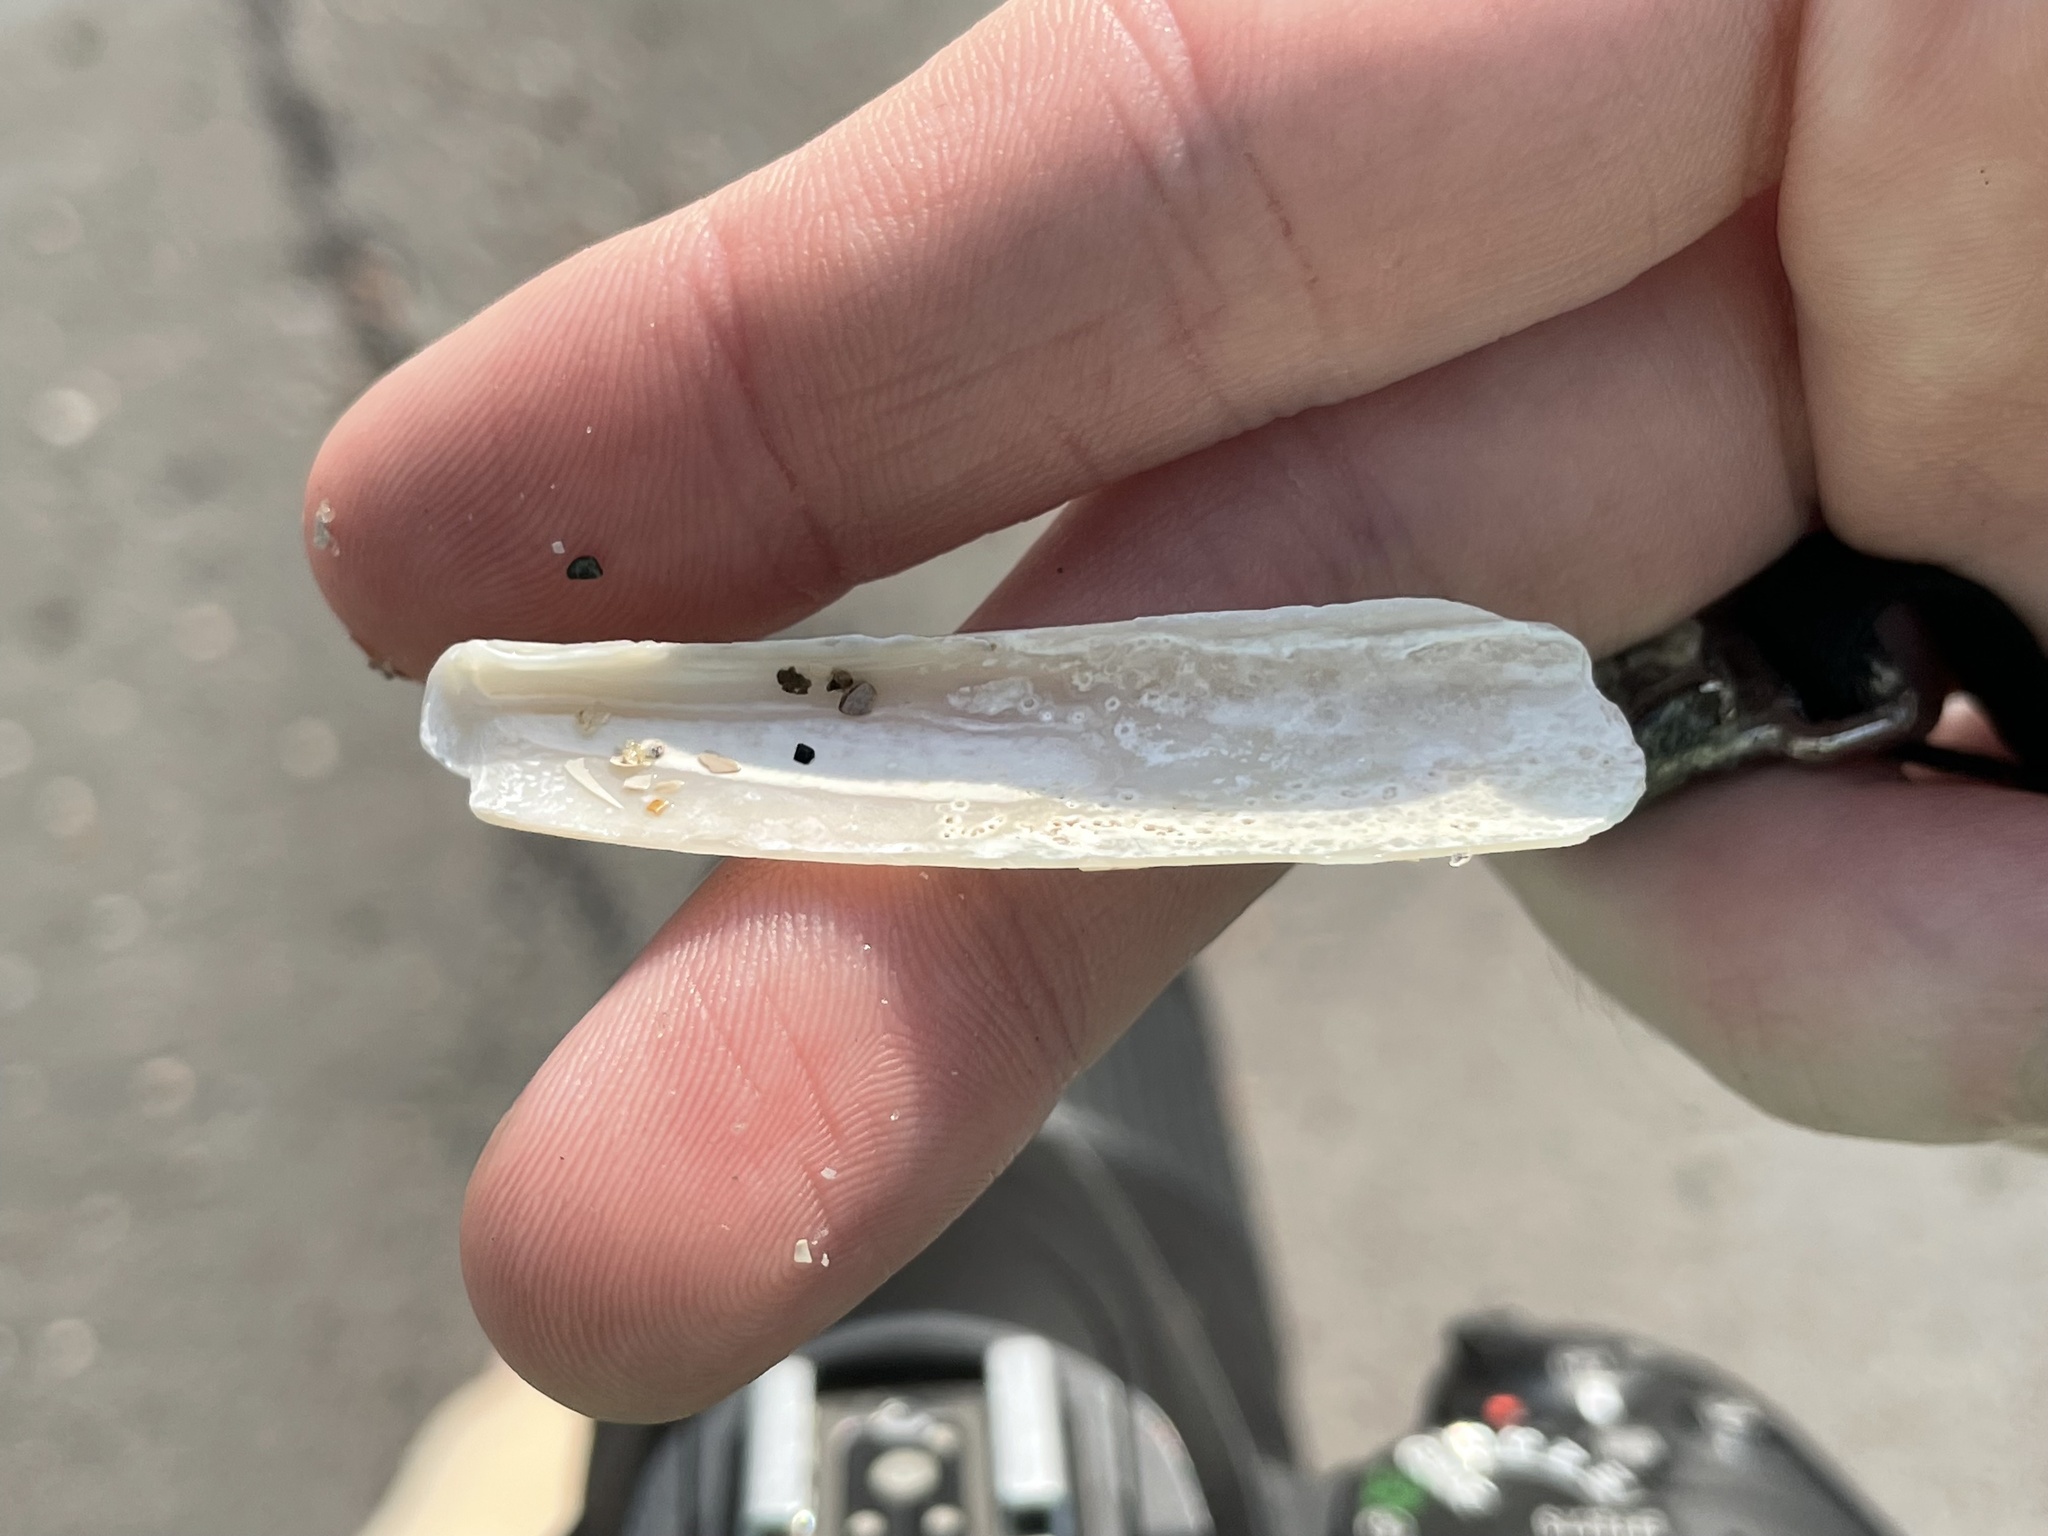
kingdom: Animalia
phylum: Mollusca
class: Bivalvia
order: Adapedonta
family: Pharidae
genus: Ensis
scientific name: Ensis leei
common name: American jack knife clam
